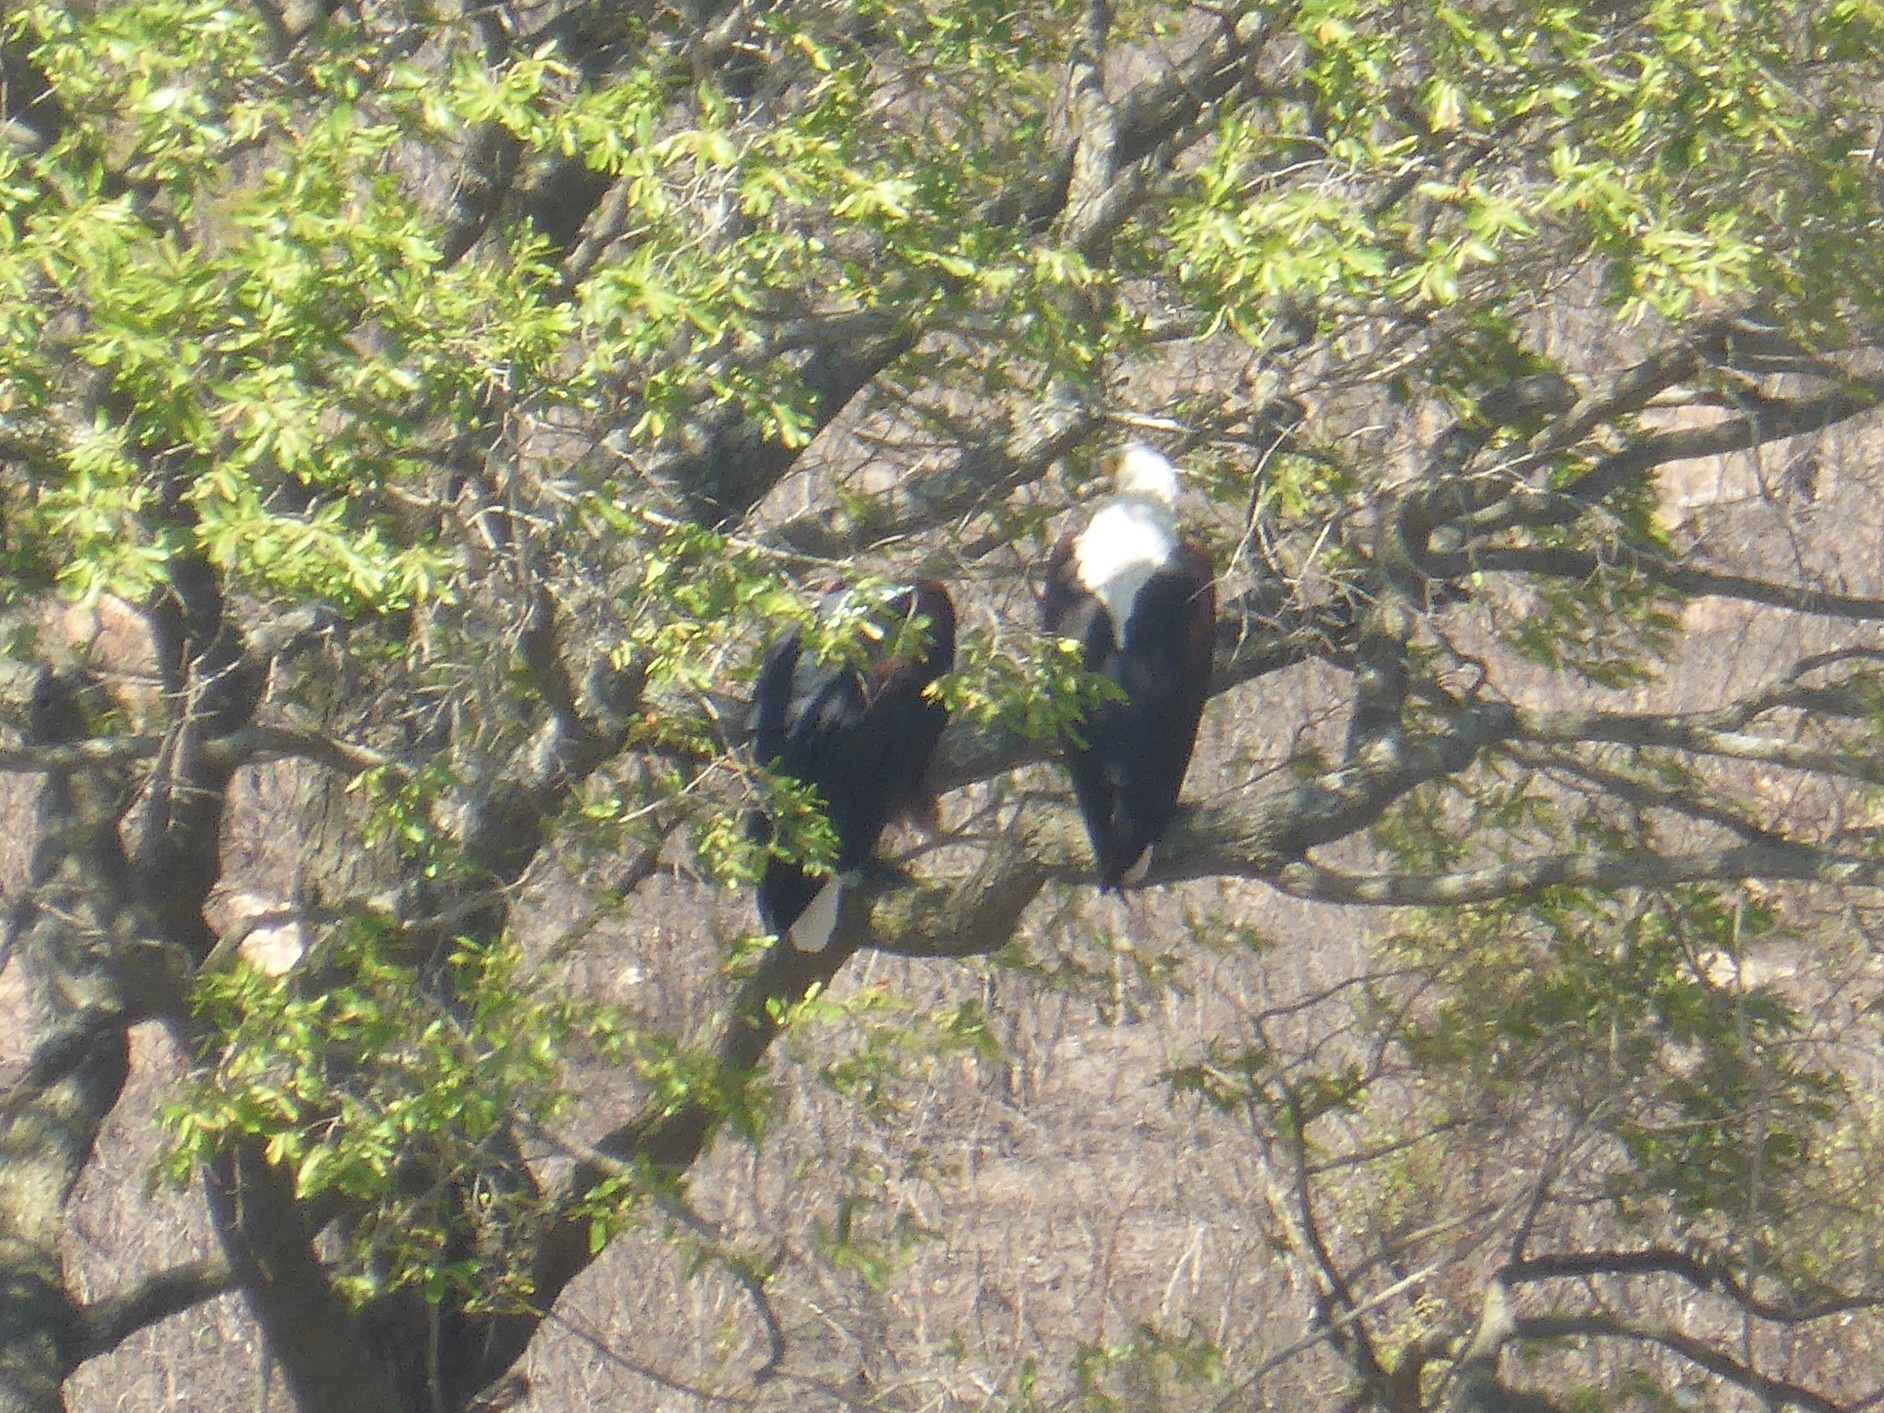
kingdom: Animalia
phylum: Chordata
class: Aves
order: Accipitriformes
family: Accipitridae
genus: Haliaeetus
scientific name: Haliaeetus vocifer
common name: African fish eagle
